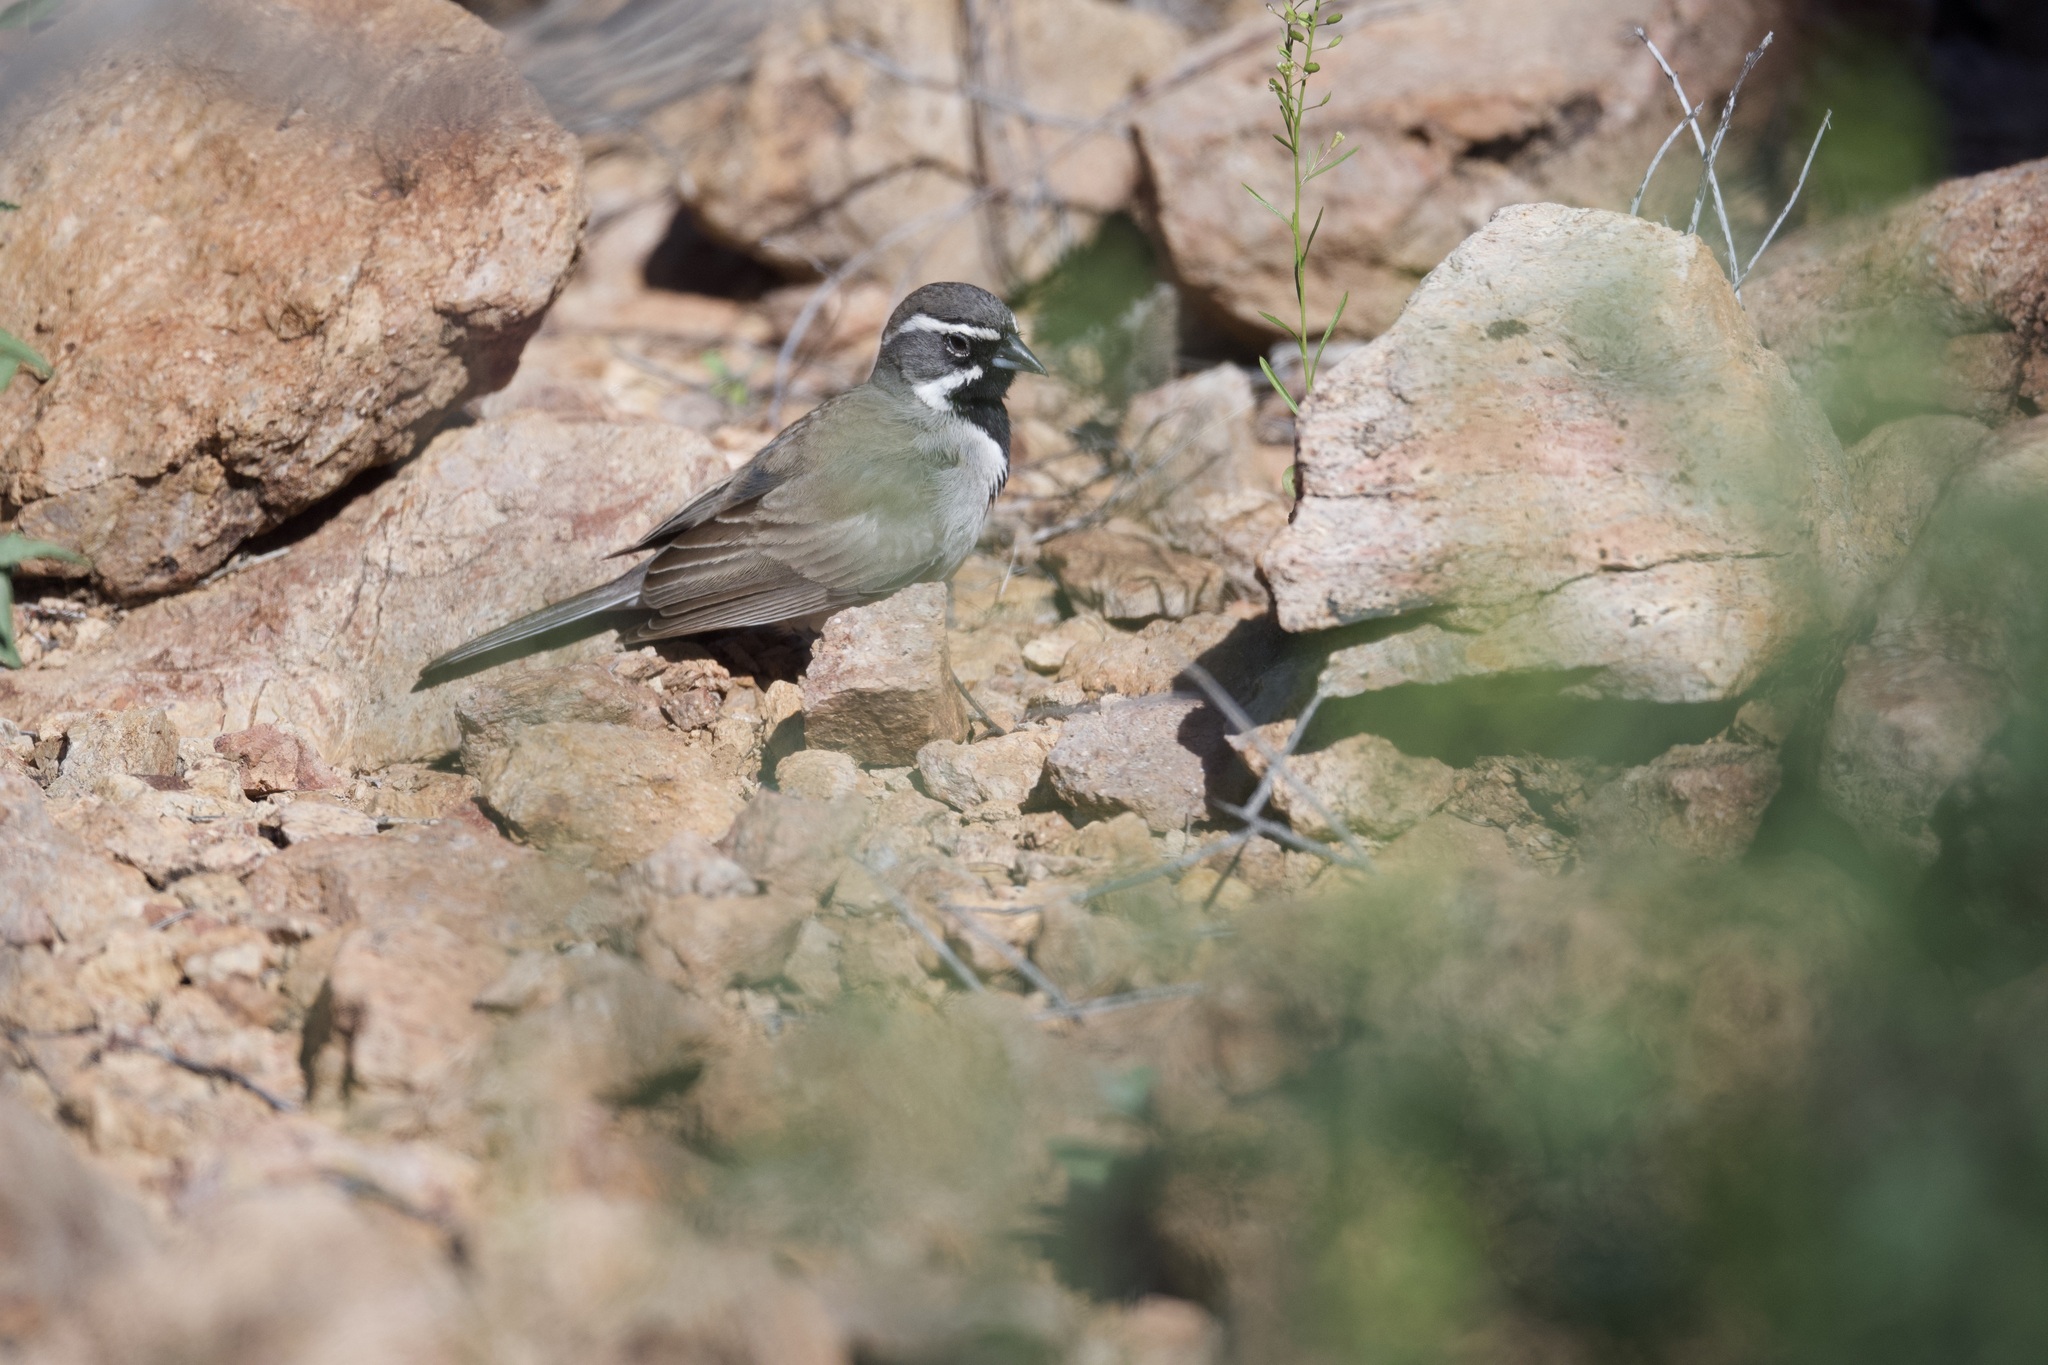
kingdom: Animalia
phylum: Chordata
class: Aves
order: Passeriformes
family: Passerellidae
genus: Amphispiza
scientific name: Amphispiza bilineata
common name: Black-throated sparrow
